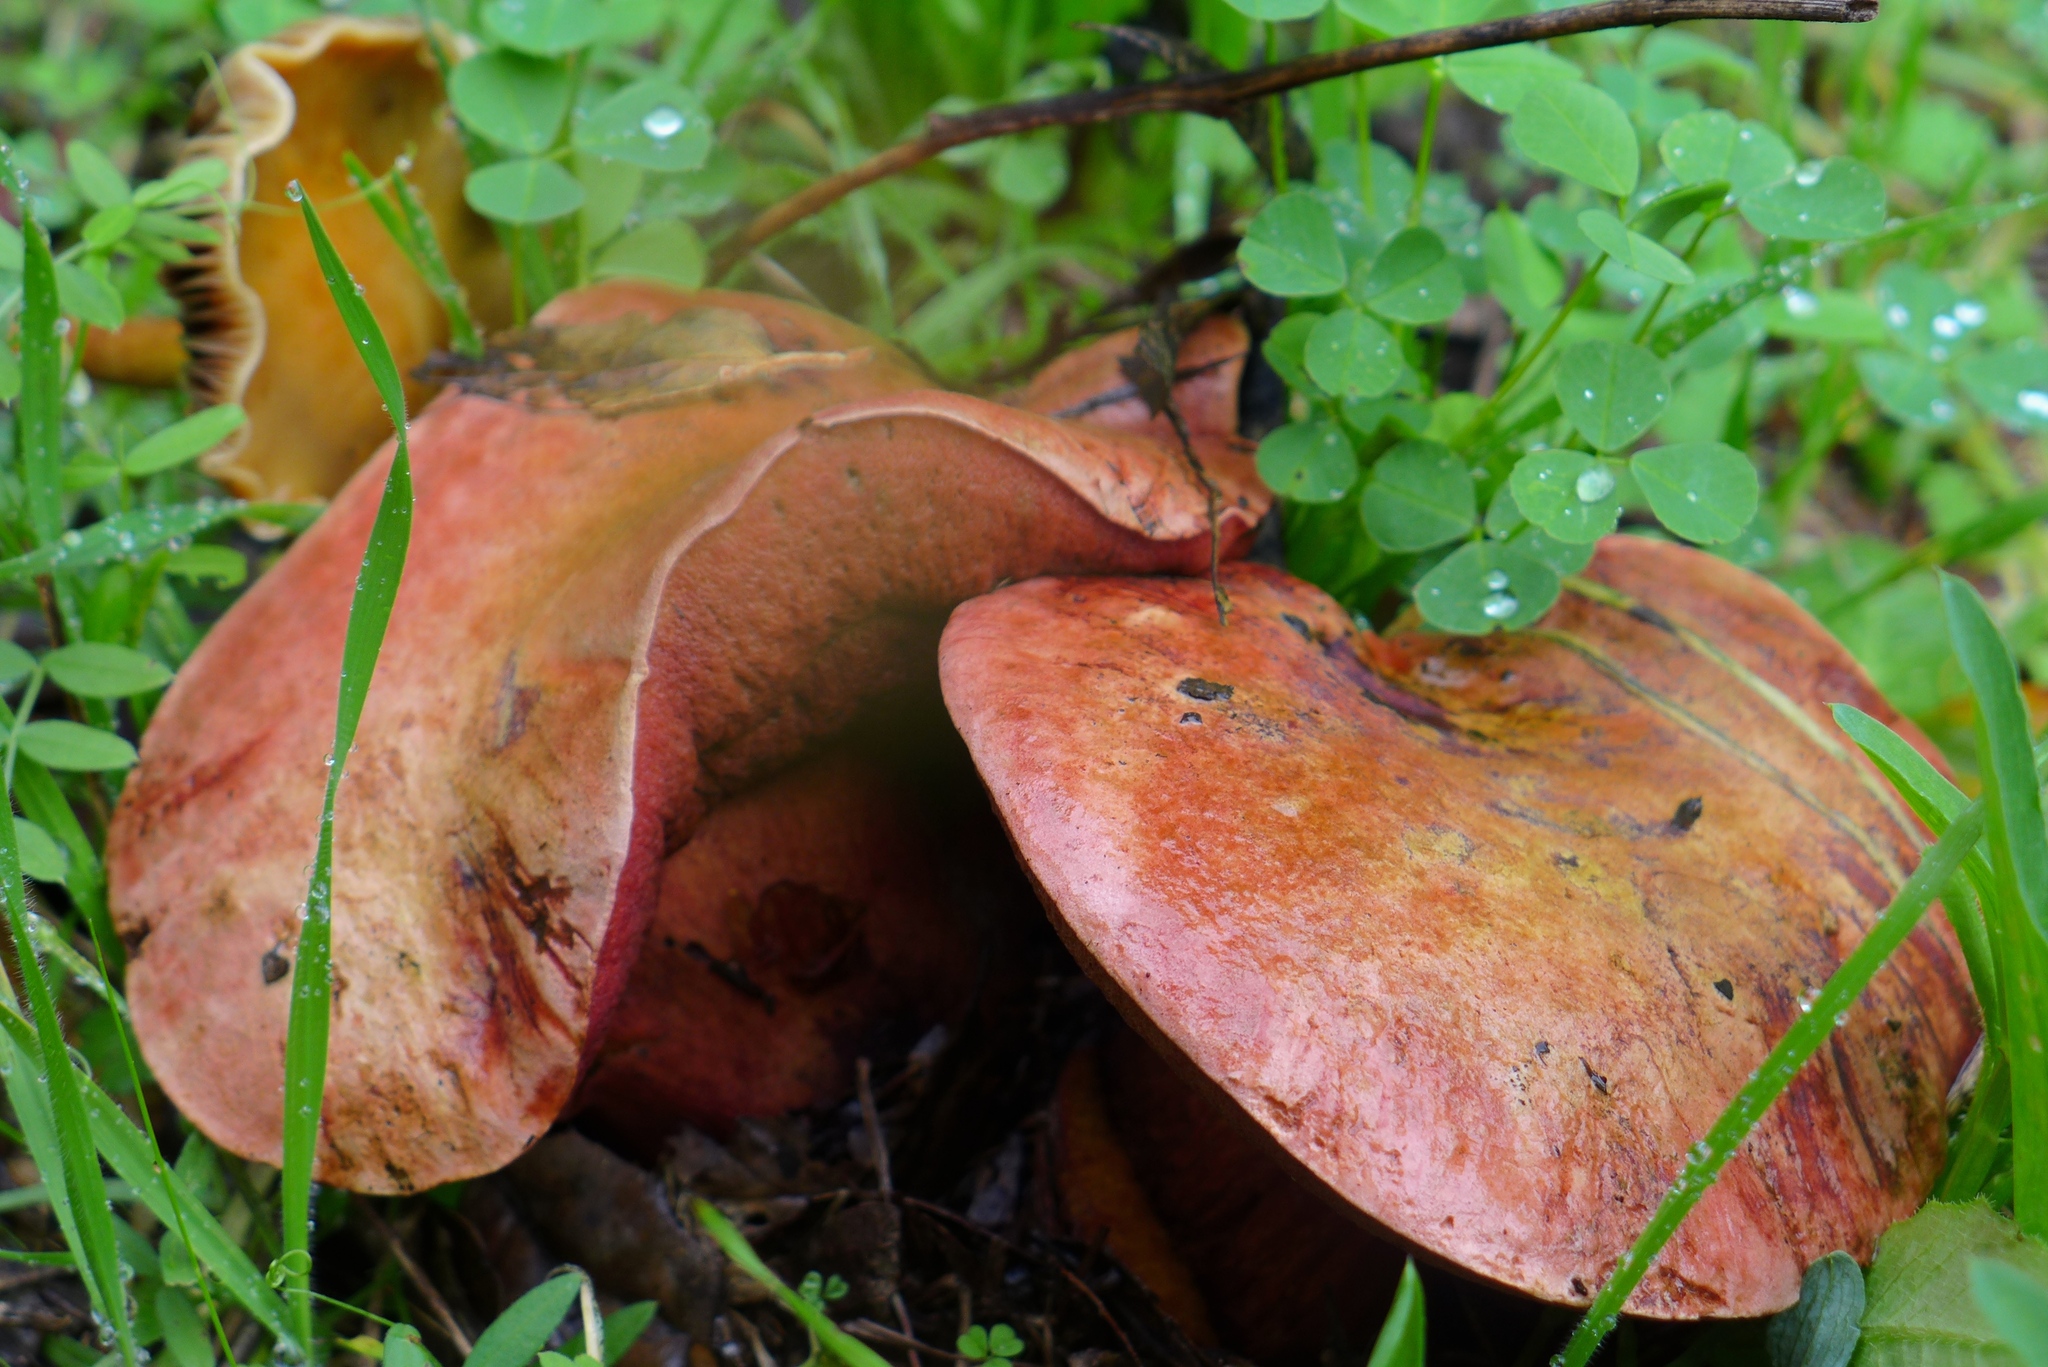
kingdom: Fungi
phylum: Basidiomycota
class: Agaricomycetes
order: Boletales
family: Boletaceae
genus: Suillellus
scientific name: Suillellus amygdalinus
